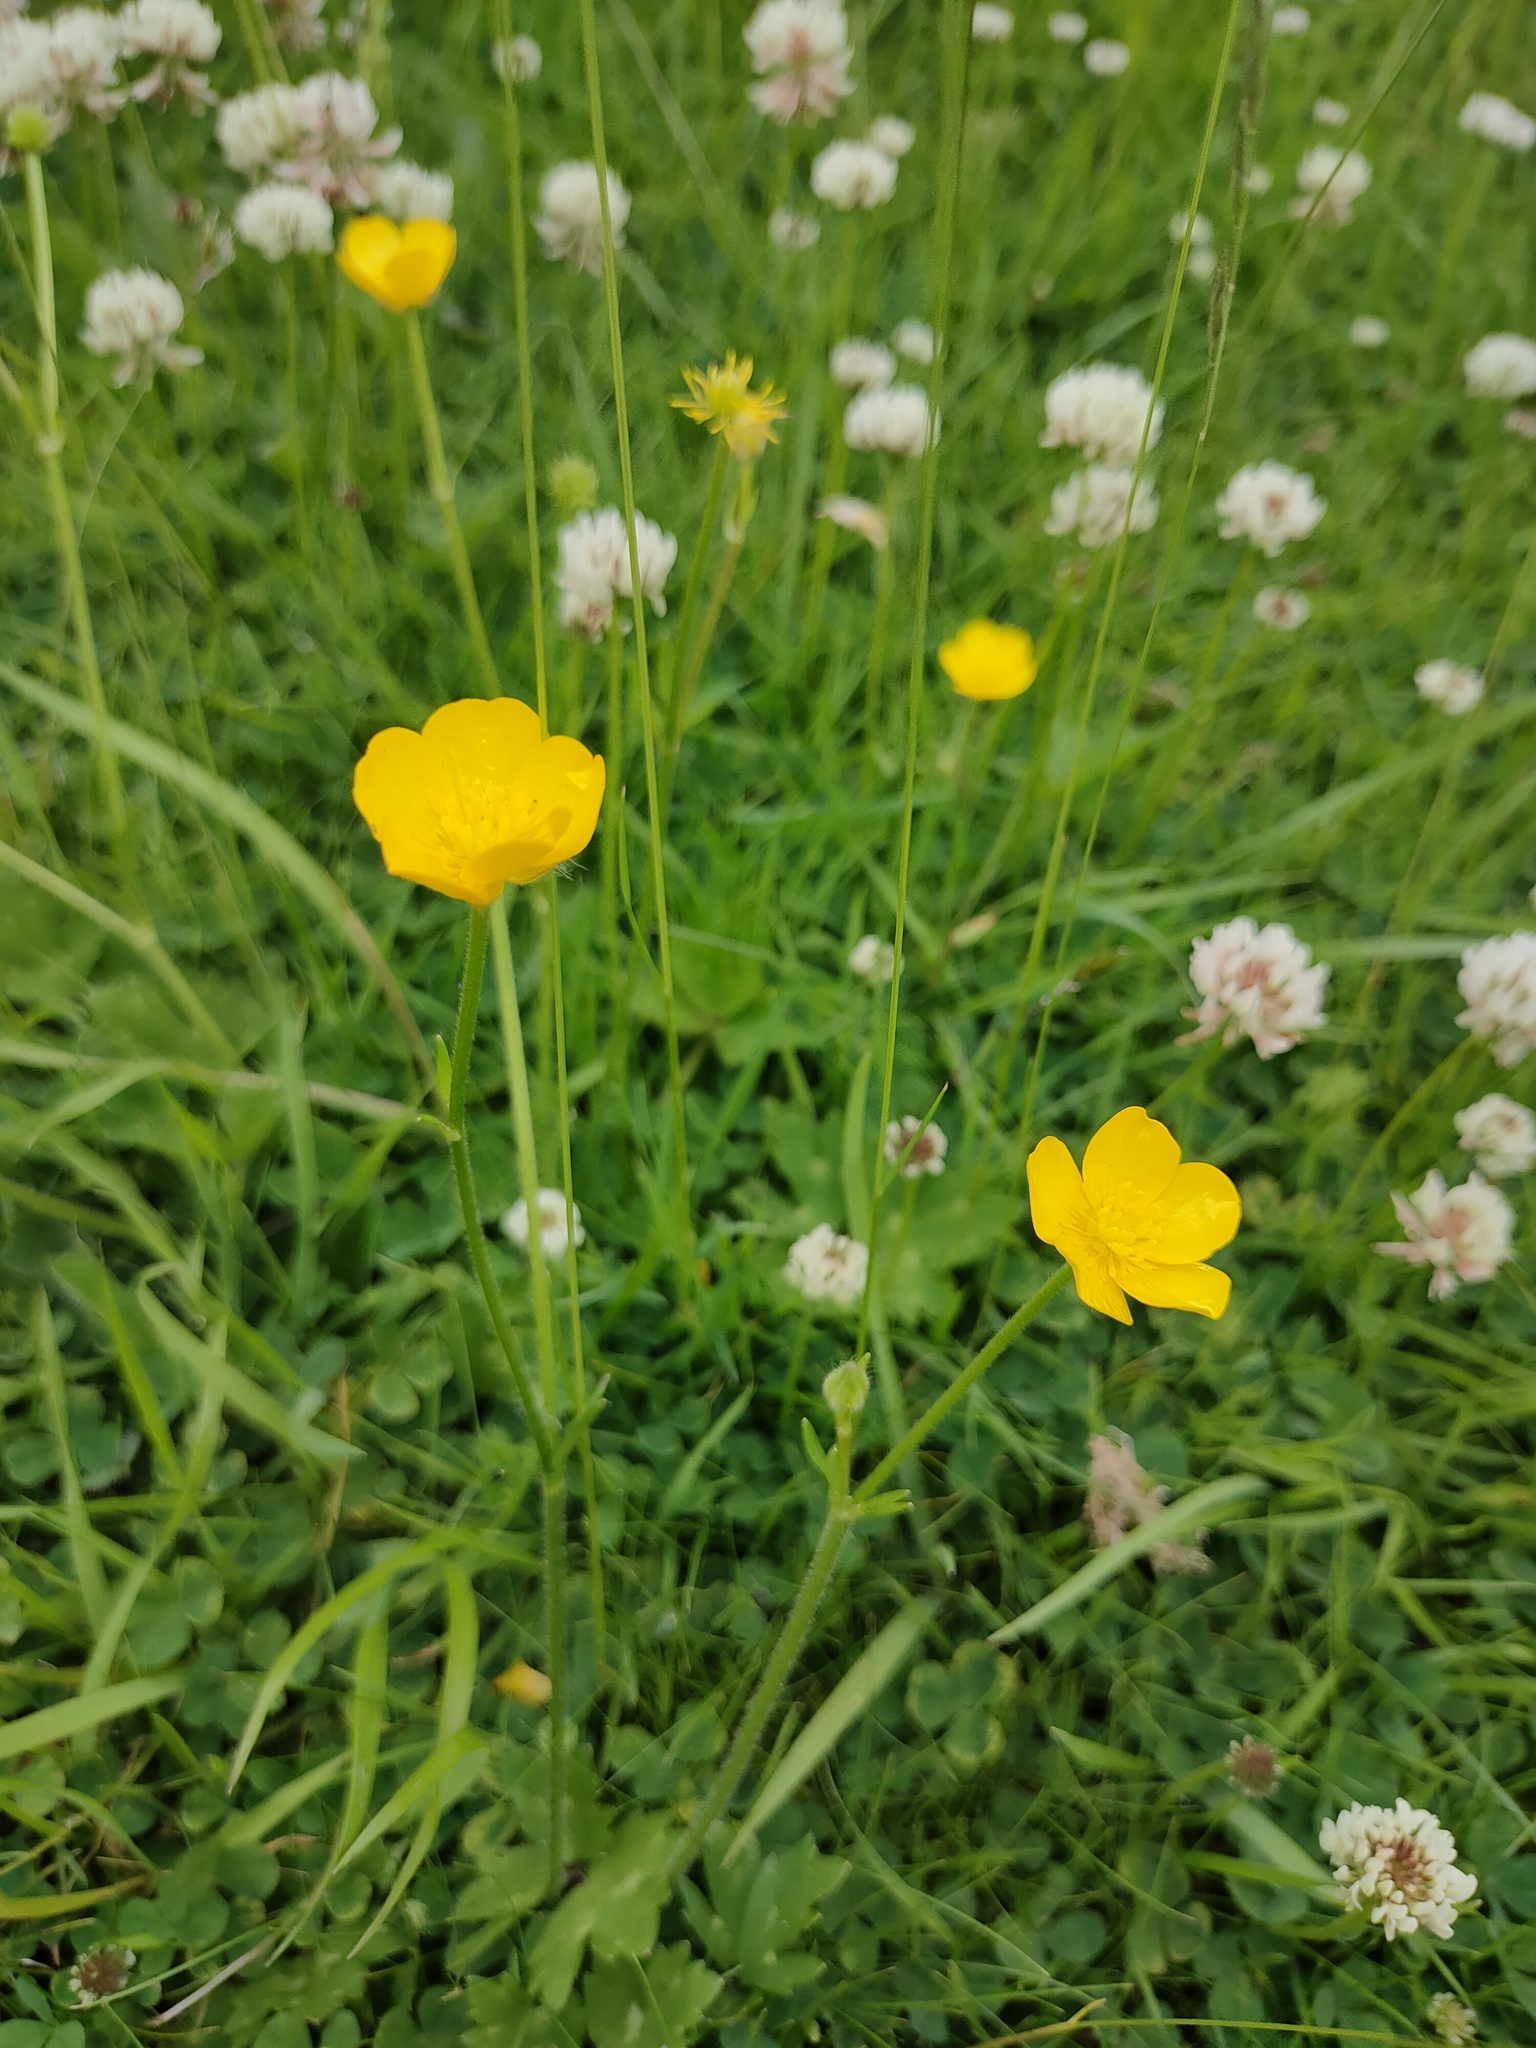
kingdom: Plantae
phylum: Tracheophyta
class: Magnoliopsida
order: Ranunculales
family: Ranunculaceae
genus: Ranunculus
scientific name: Ranunculus repens
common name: Creeping buttercup
